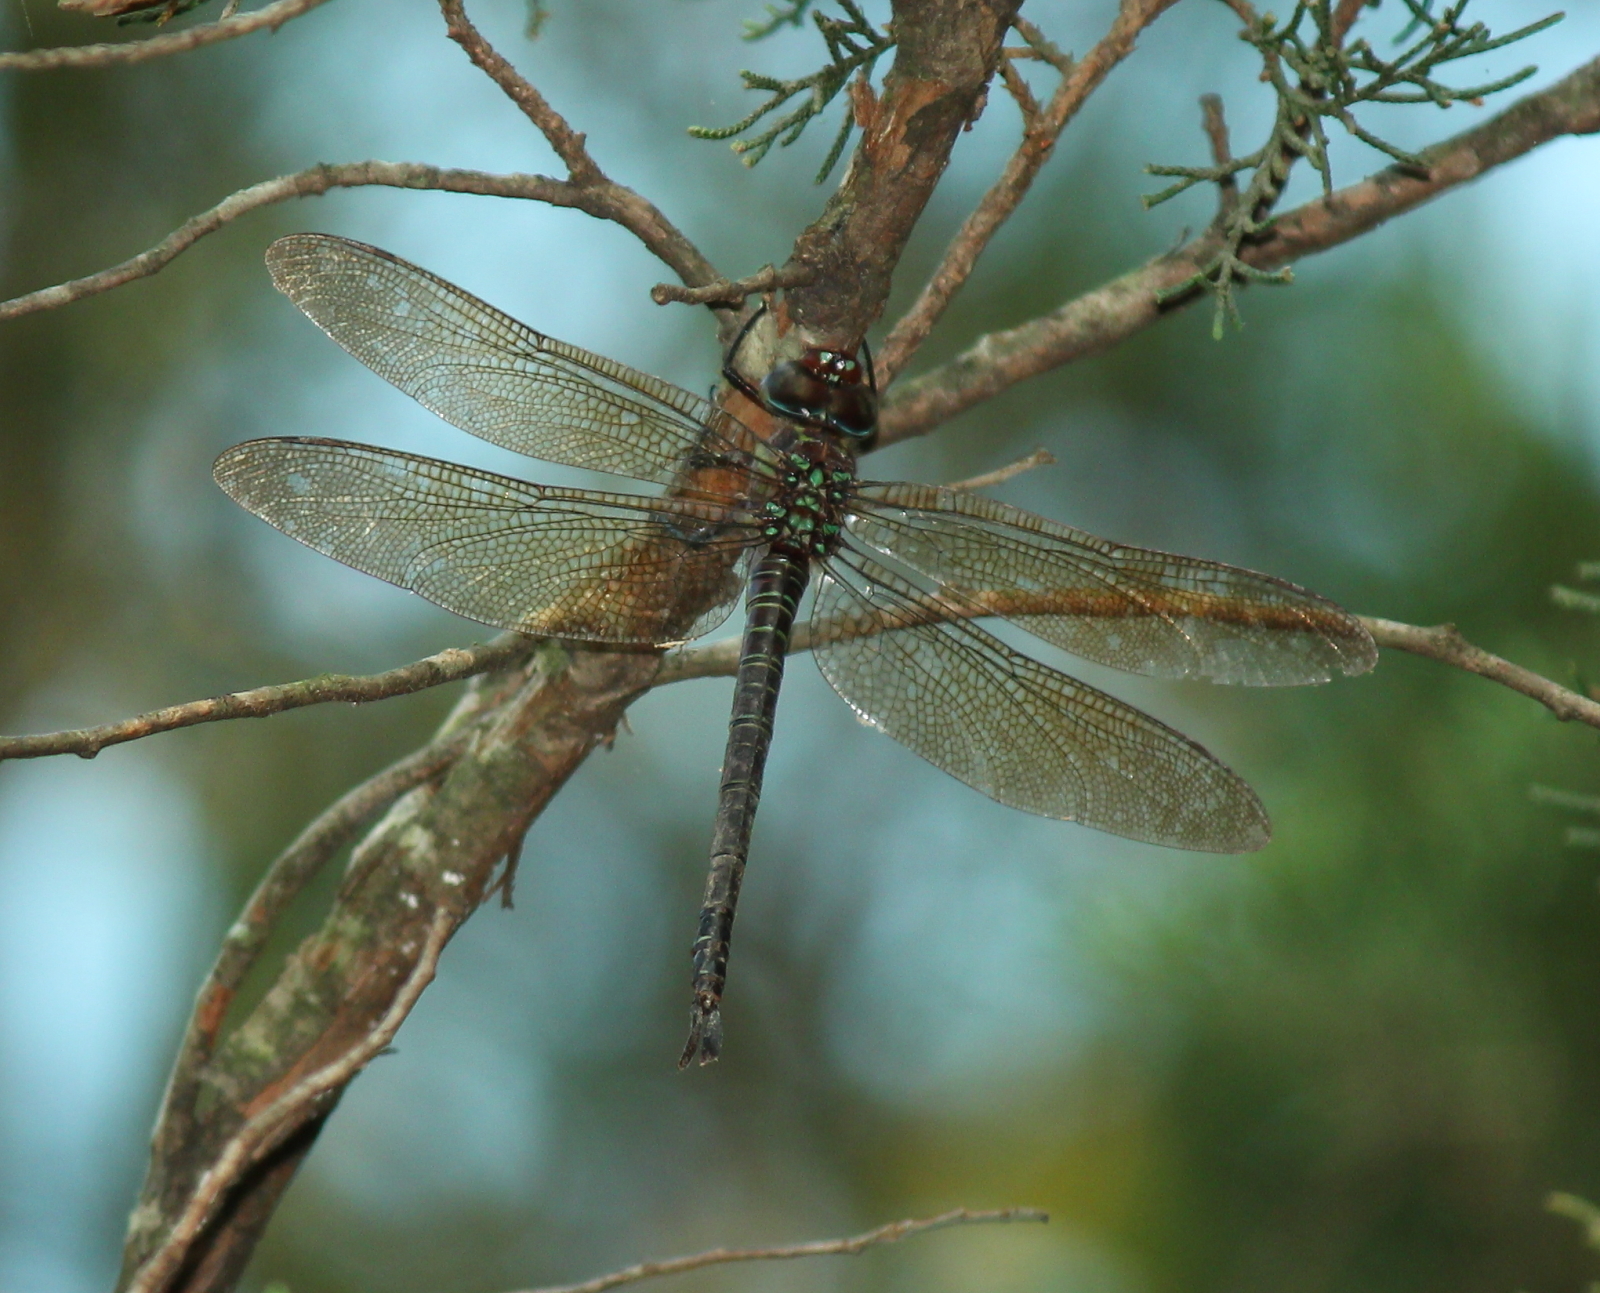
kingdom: Animalia
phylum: Arthropoda
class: Insecta
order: Odonata
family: Aeshnidae
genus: Epiaeschna
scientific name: Epiaeschna heros
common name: Swamp darner
